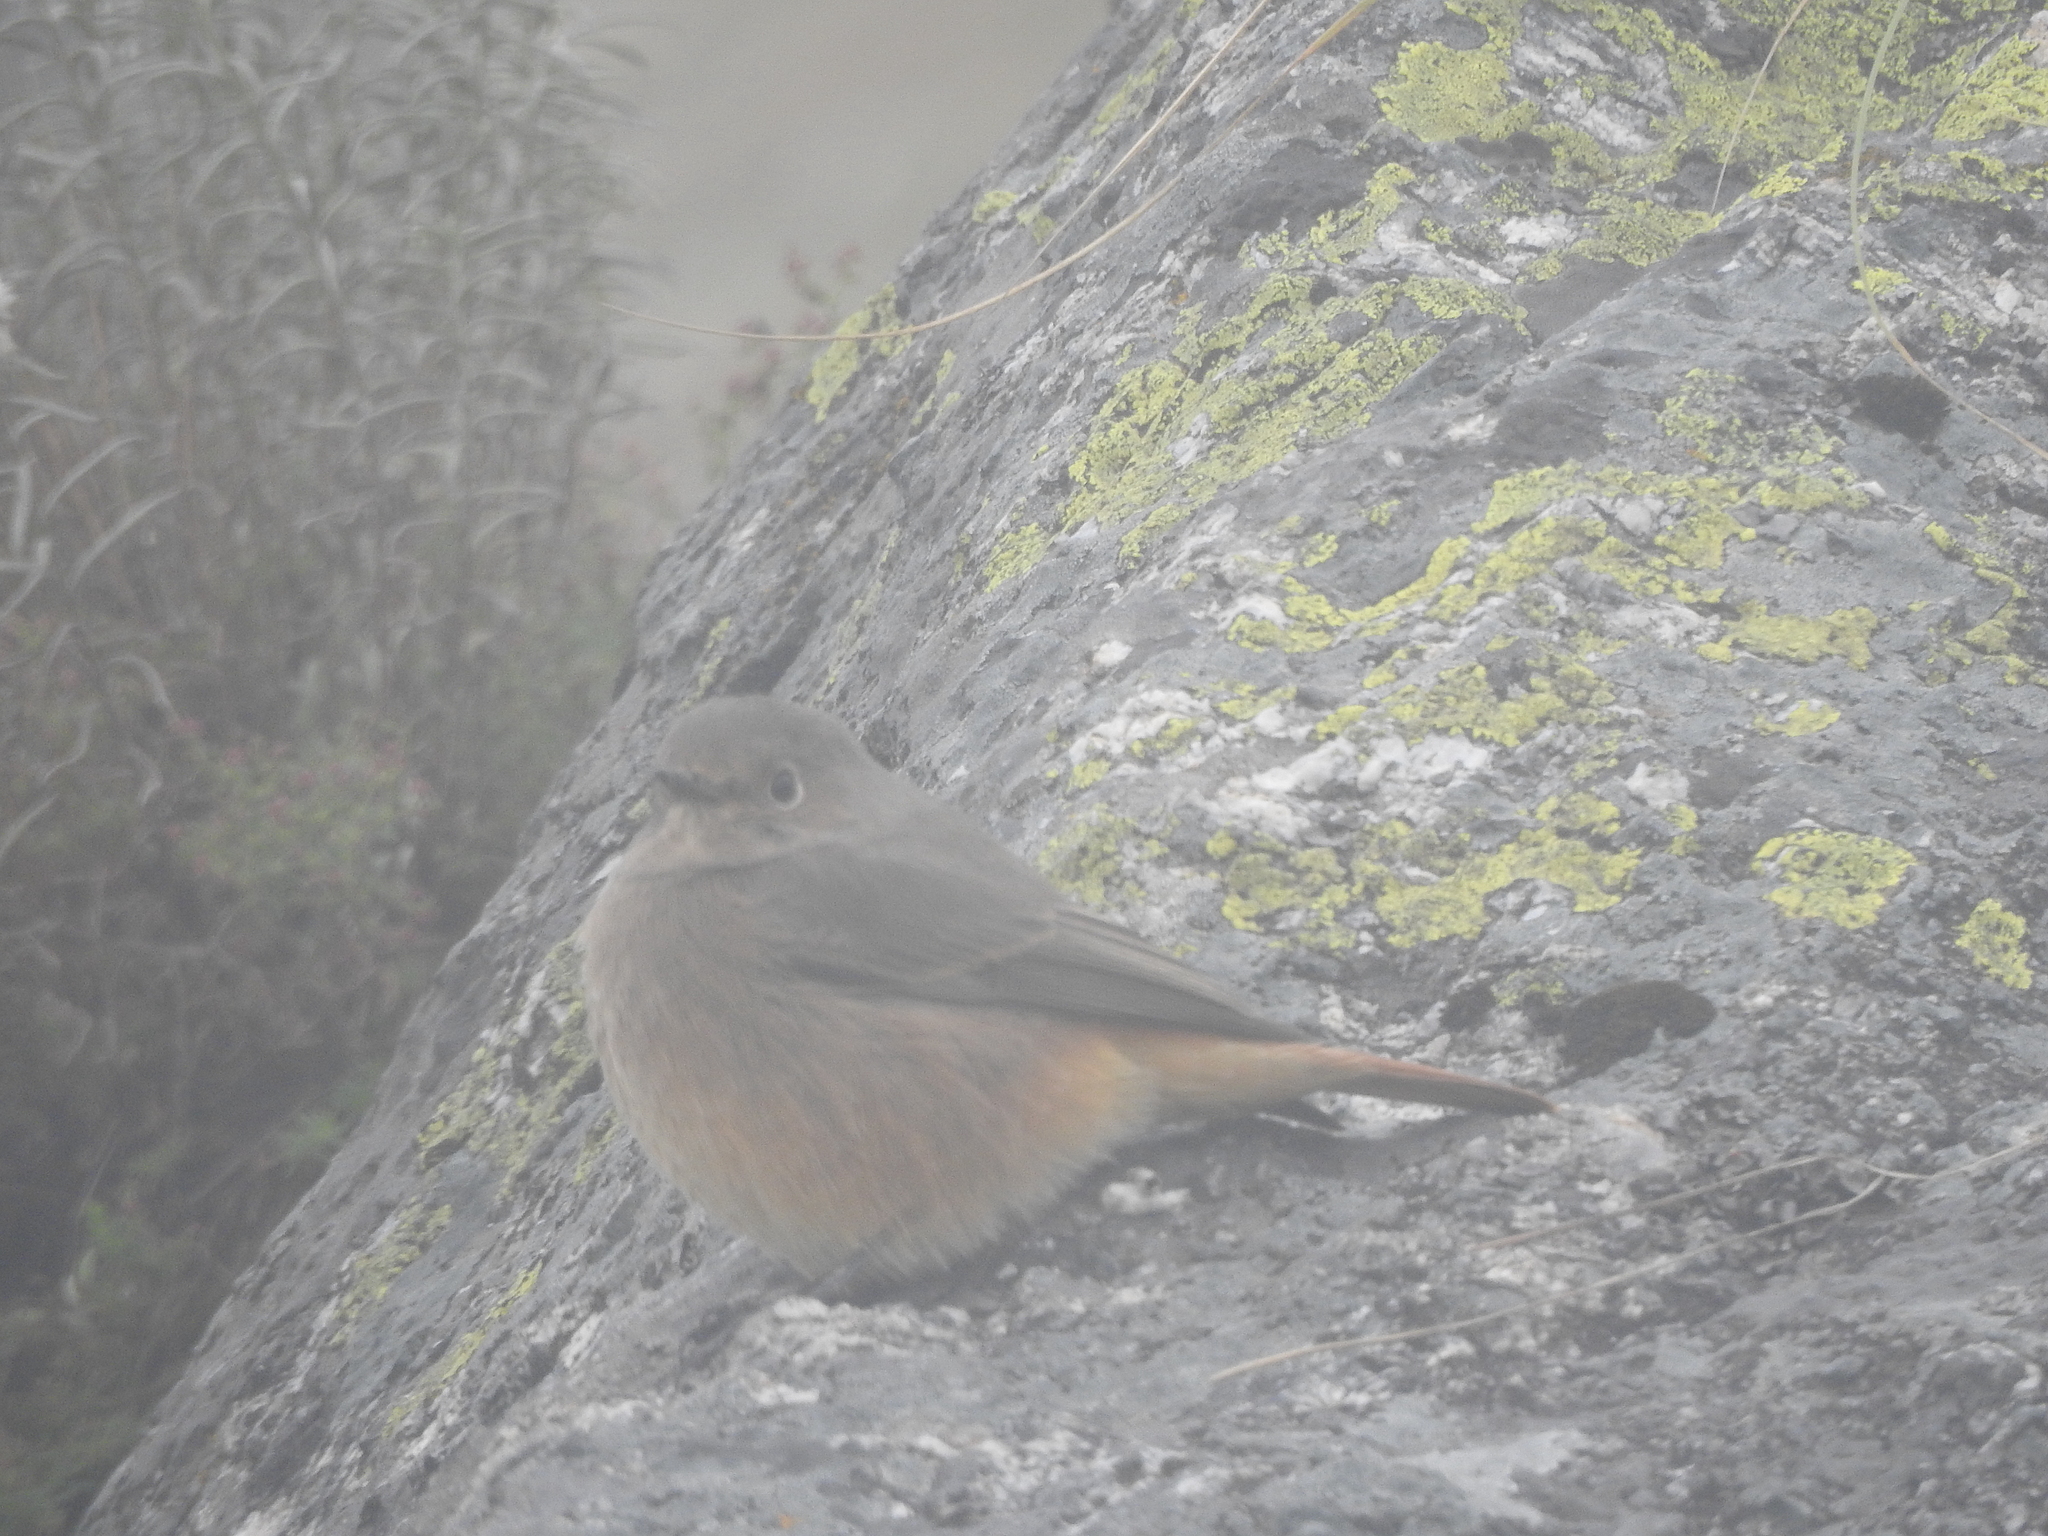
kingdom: Animalia
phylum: Chordata
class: Aves
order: Passeriformes
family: Muscicapidae
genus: Phoenicurus
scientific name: Phoenicurus ochruros
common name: Black redstart
